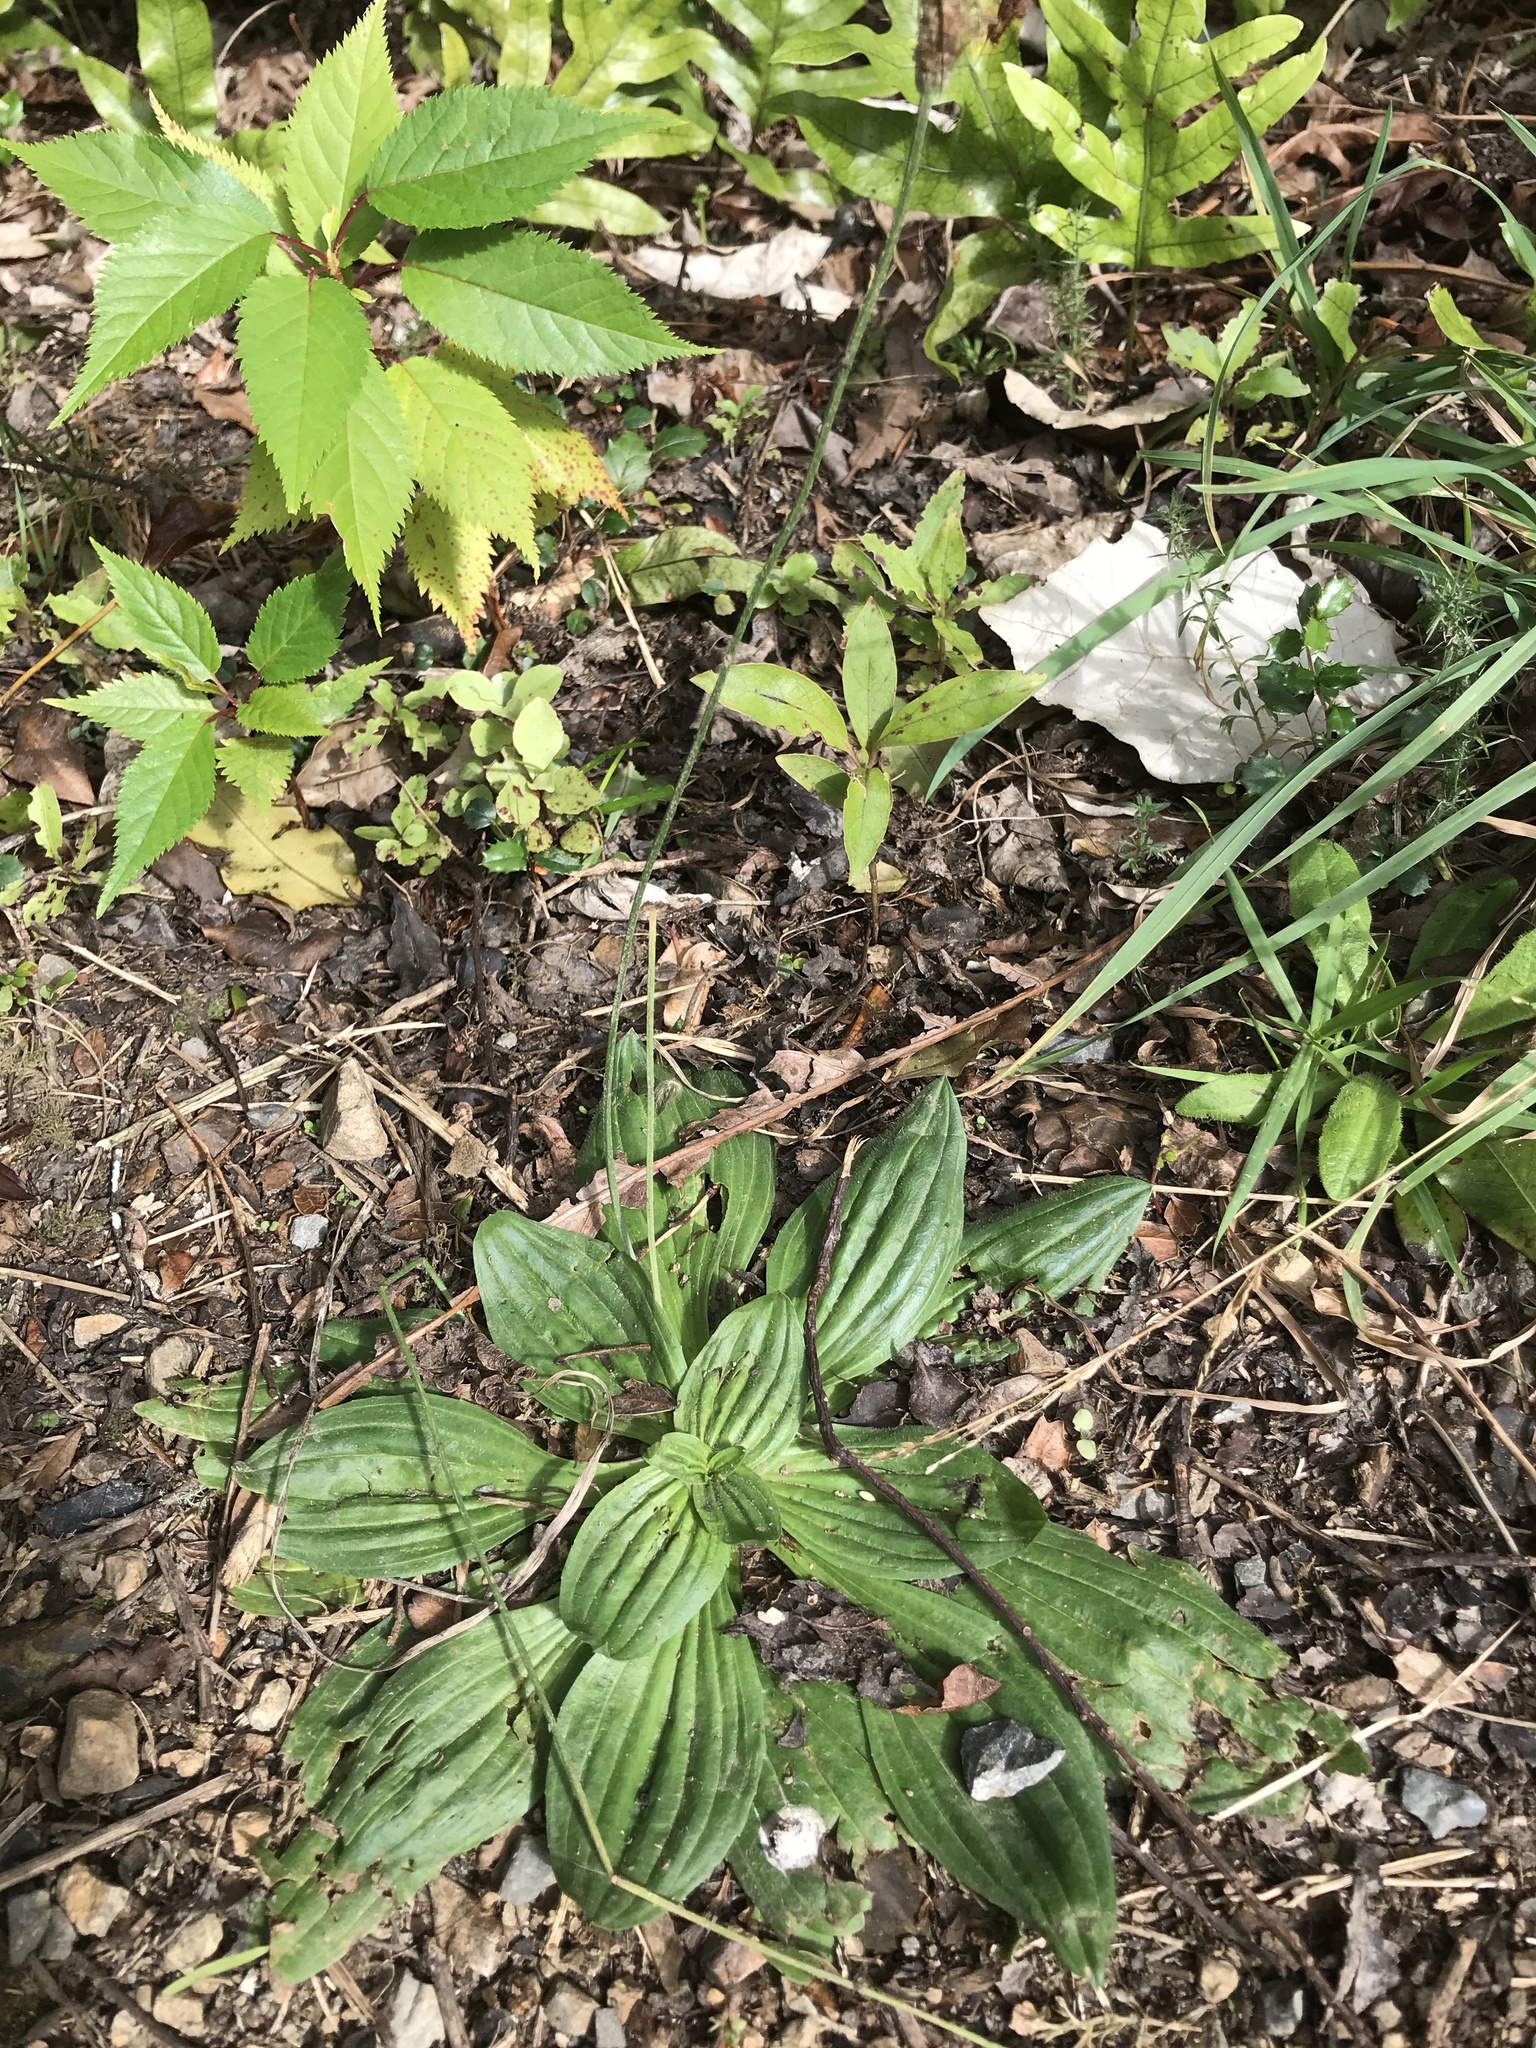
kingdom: Plantae
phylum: Tracheophyta
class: Magnoliopsida
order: Lamiales
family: Plantaginaceae
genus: Plantago
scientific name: Plantago major
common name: Common plantain
